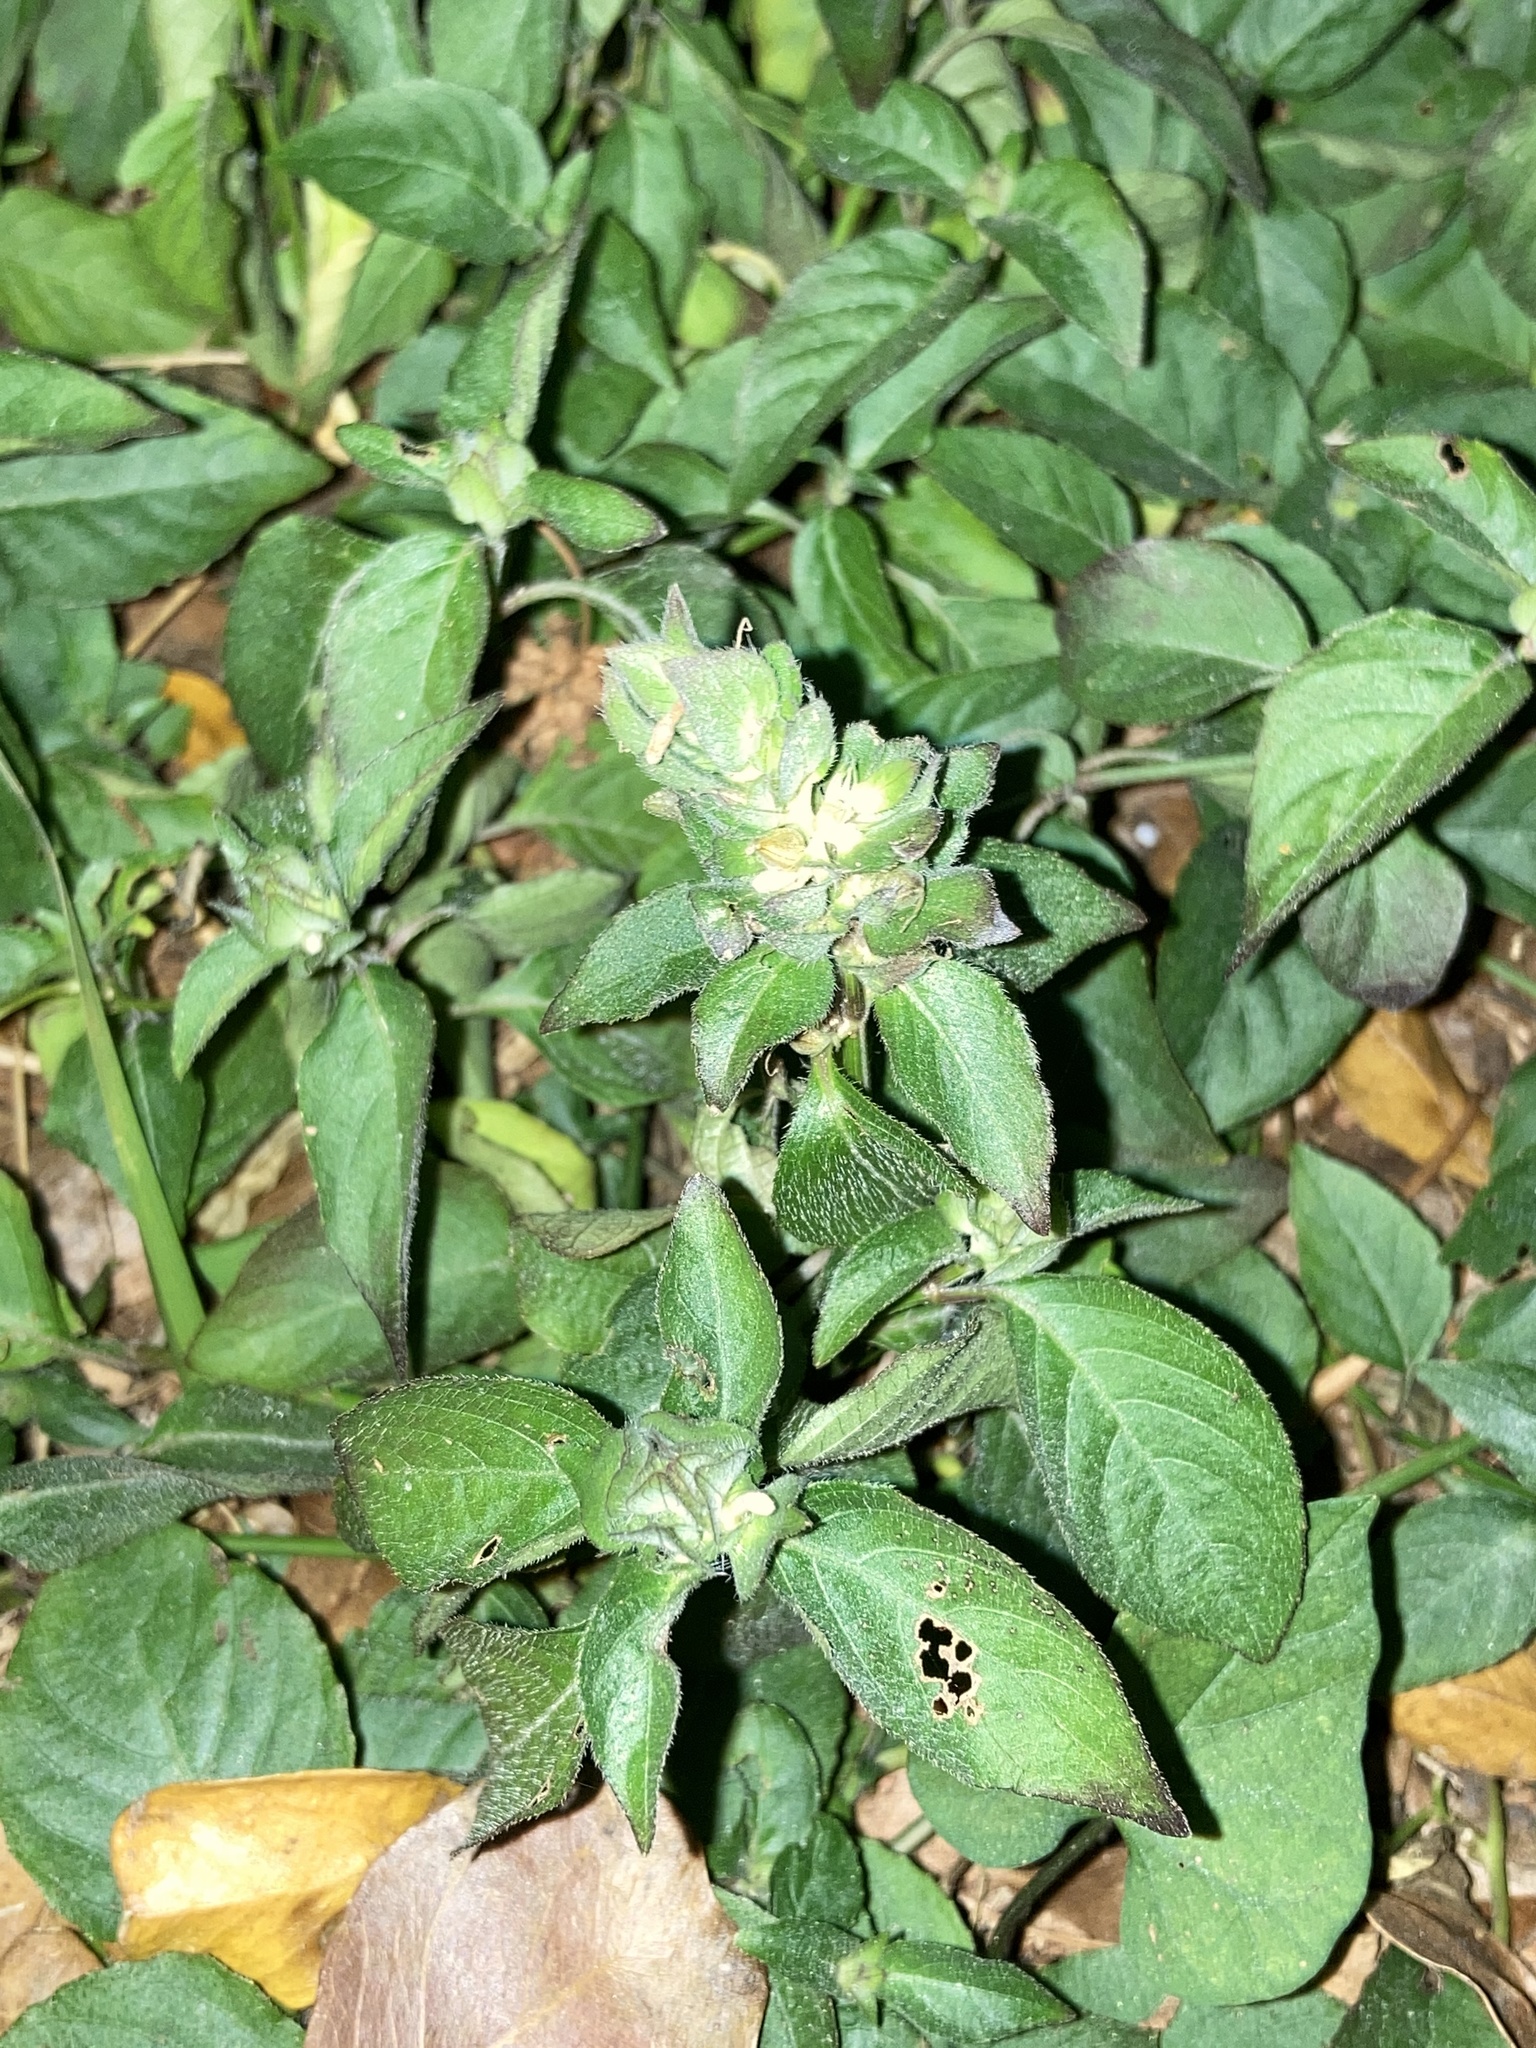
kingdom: Plantae
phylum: Tracheophyta
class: Magnoliopsida
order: Lamiales
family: Acanthaceae
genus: Ruellia
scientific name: Ruellia blechum
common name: Browne's blechum
